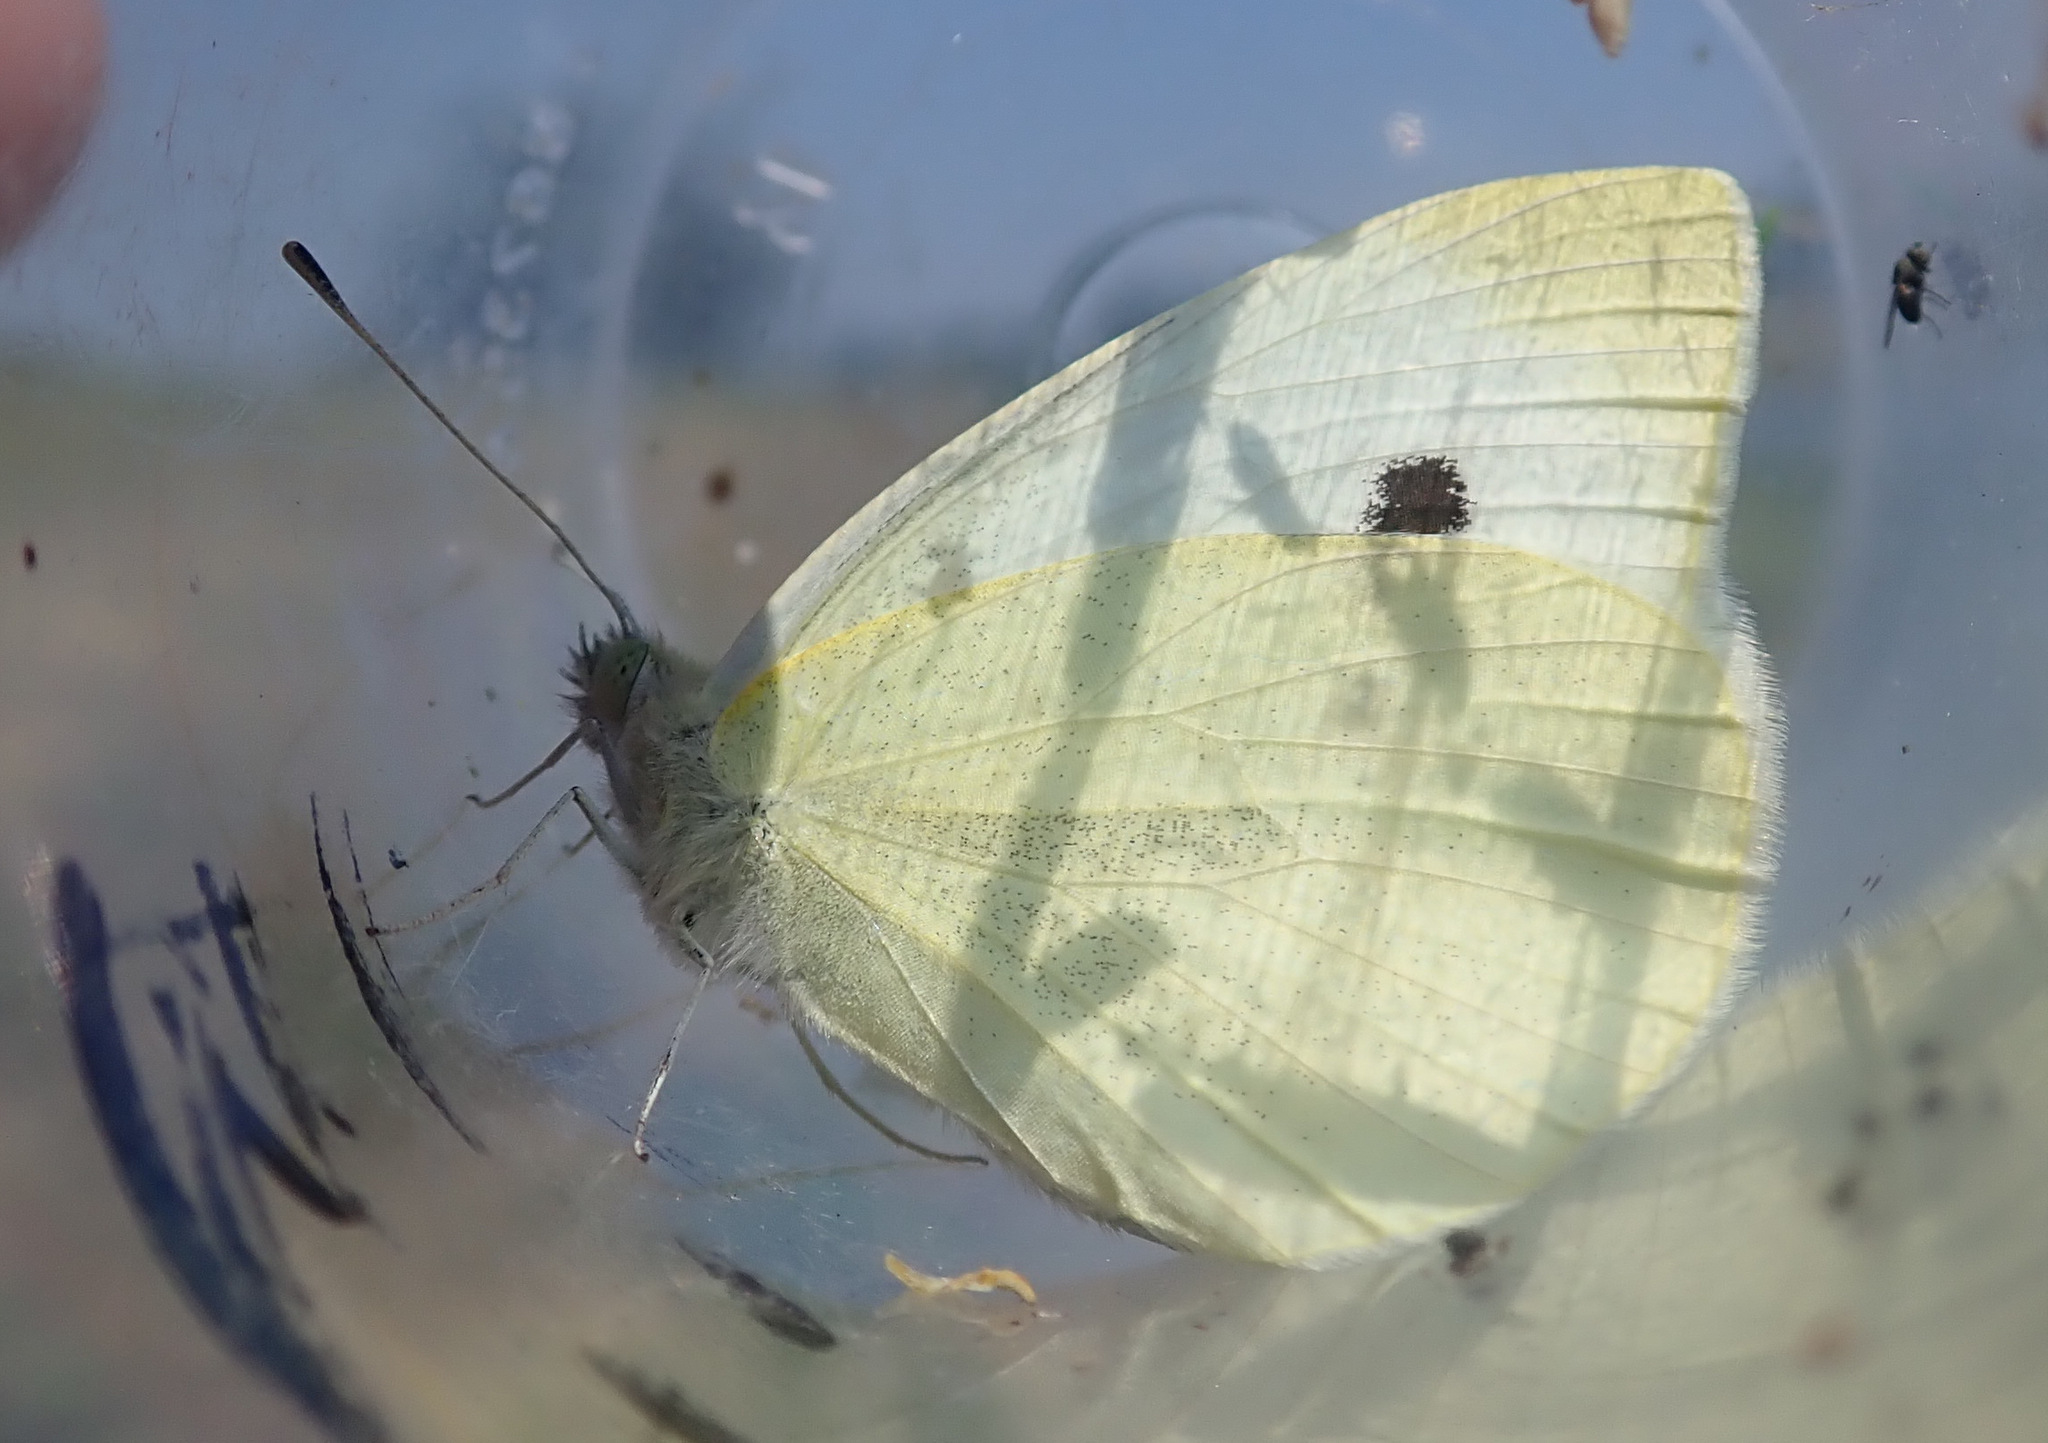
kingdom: Animalia
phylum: Arthropoda
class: Insecta
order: Lepidoptera
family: Pieridae
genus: Pieris
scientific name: Pieris rapae
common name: Small white
